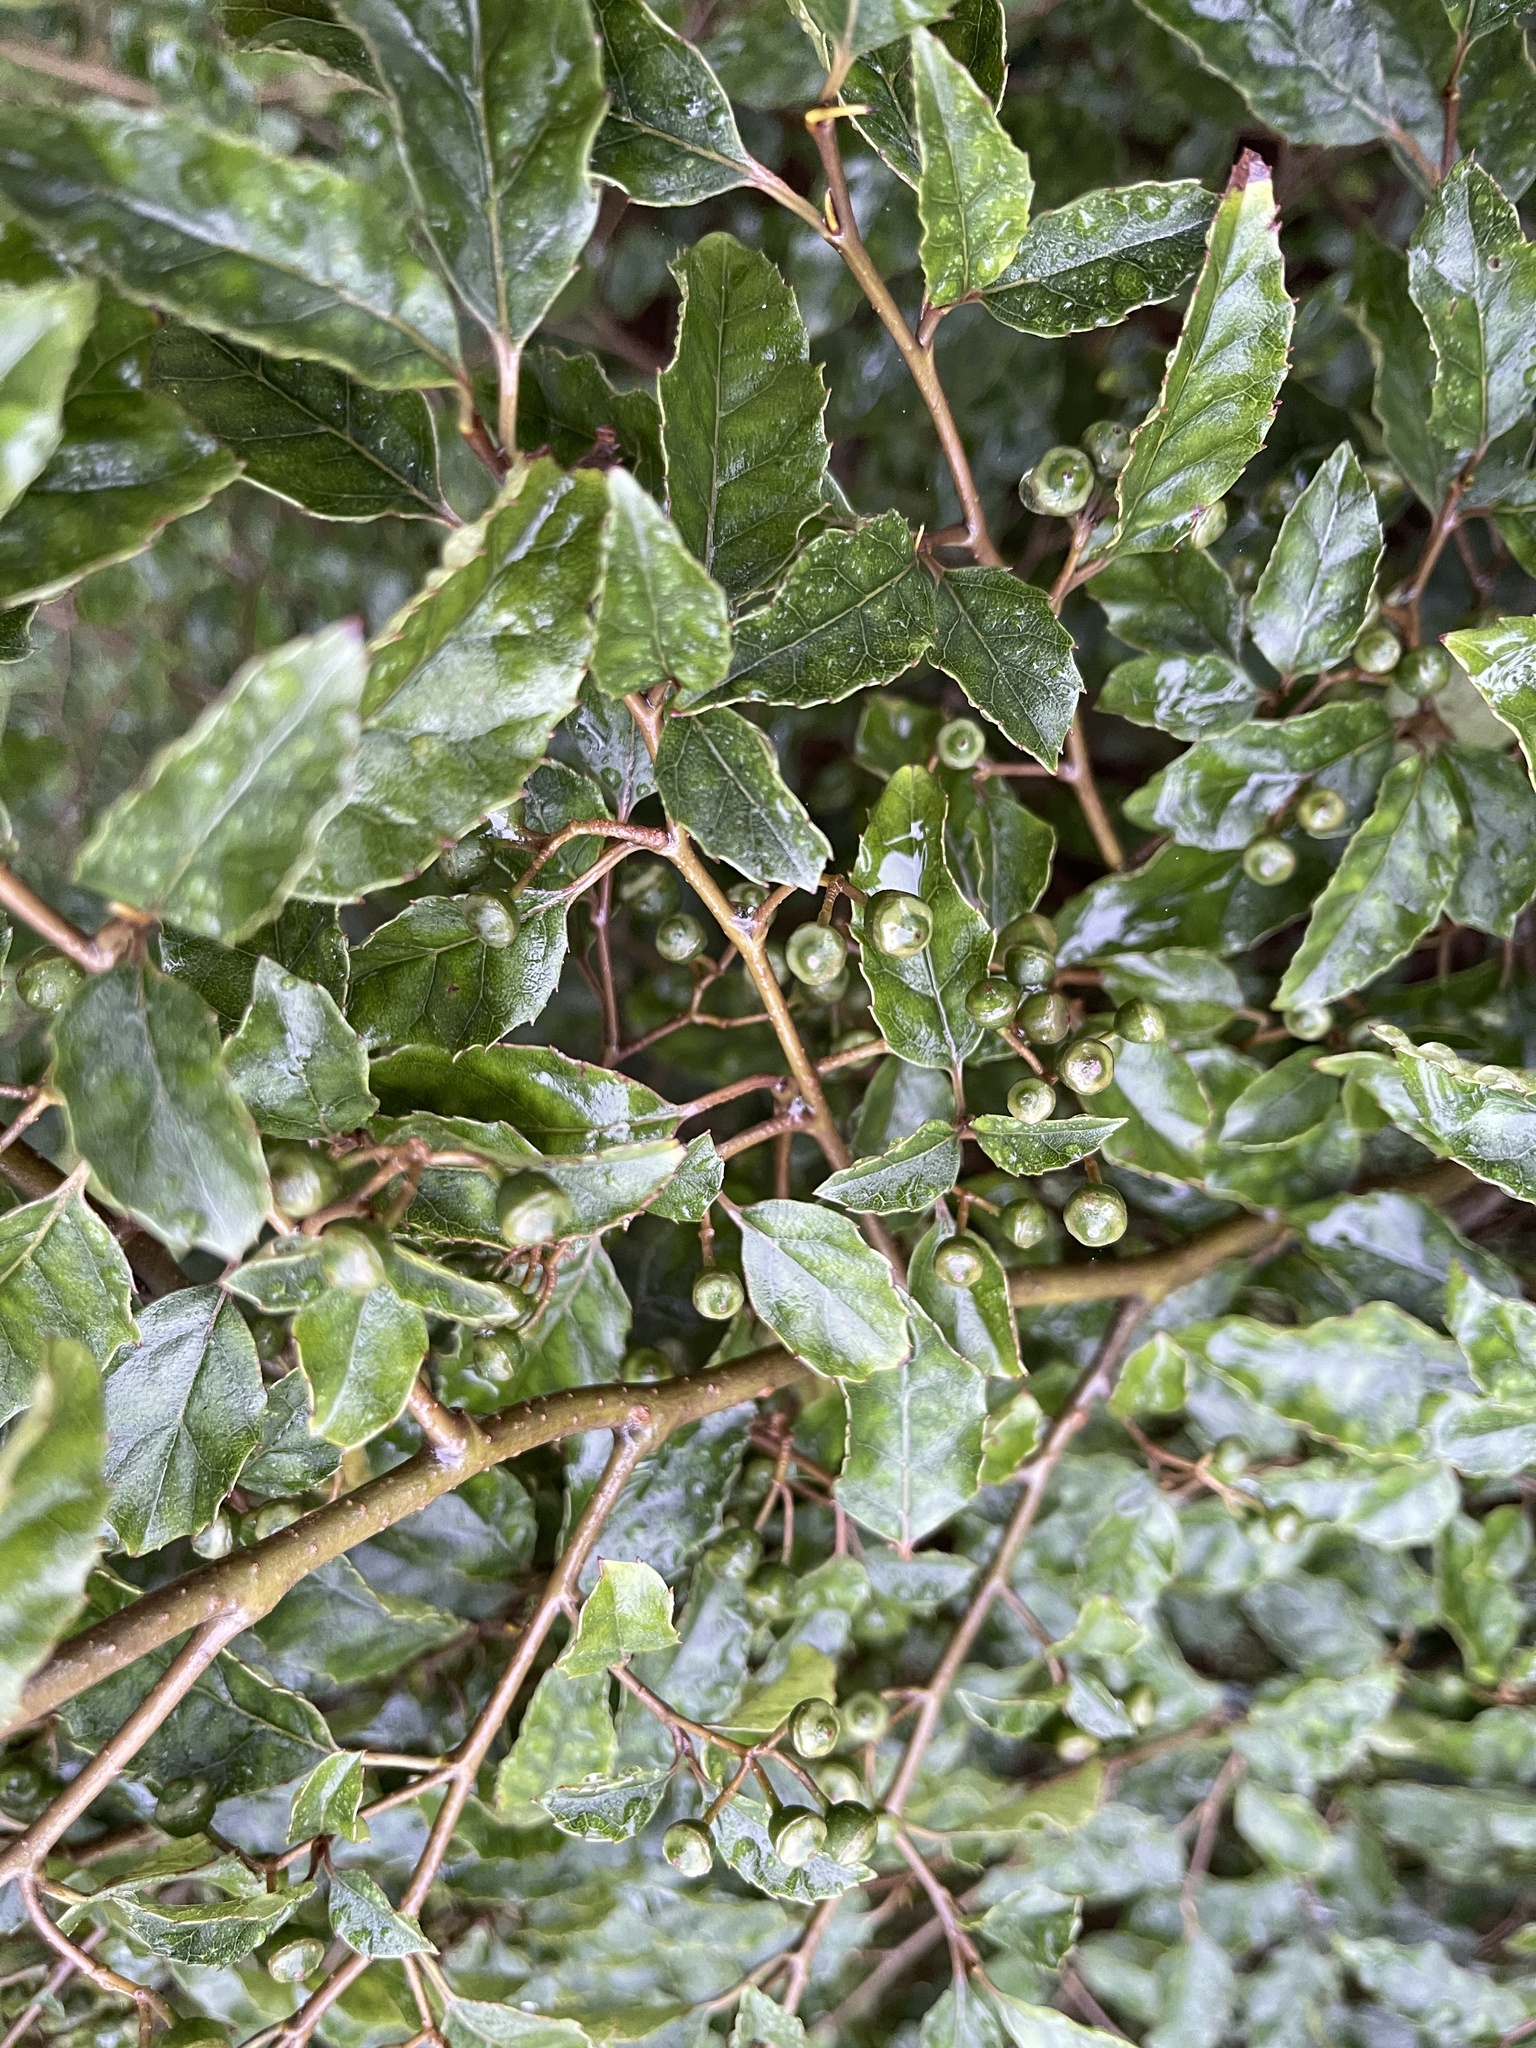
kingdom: Plantae
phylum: Tracheophyta
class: Magnoliopsida
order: Asterales
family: Rousseaceae
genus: Carpodetus
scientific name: Carpodetus serratus
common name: White mapau
